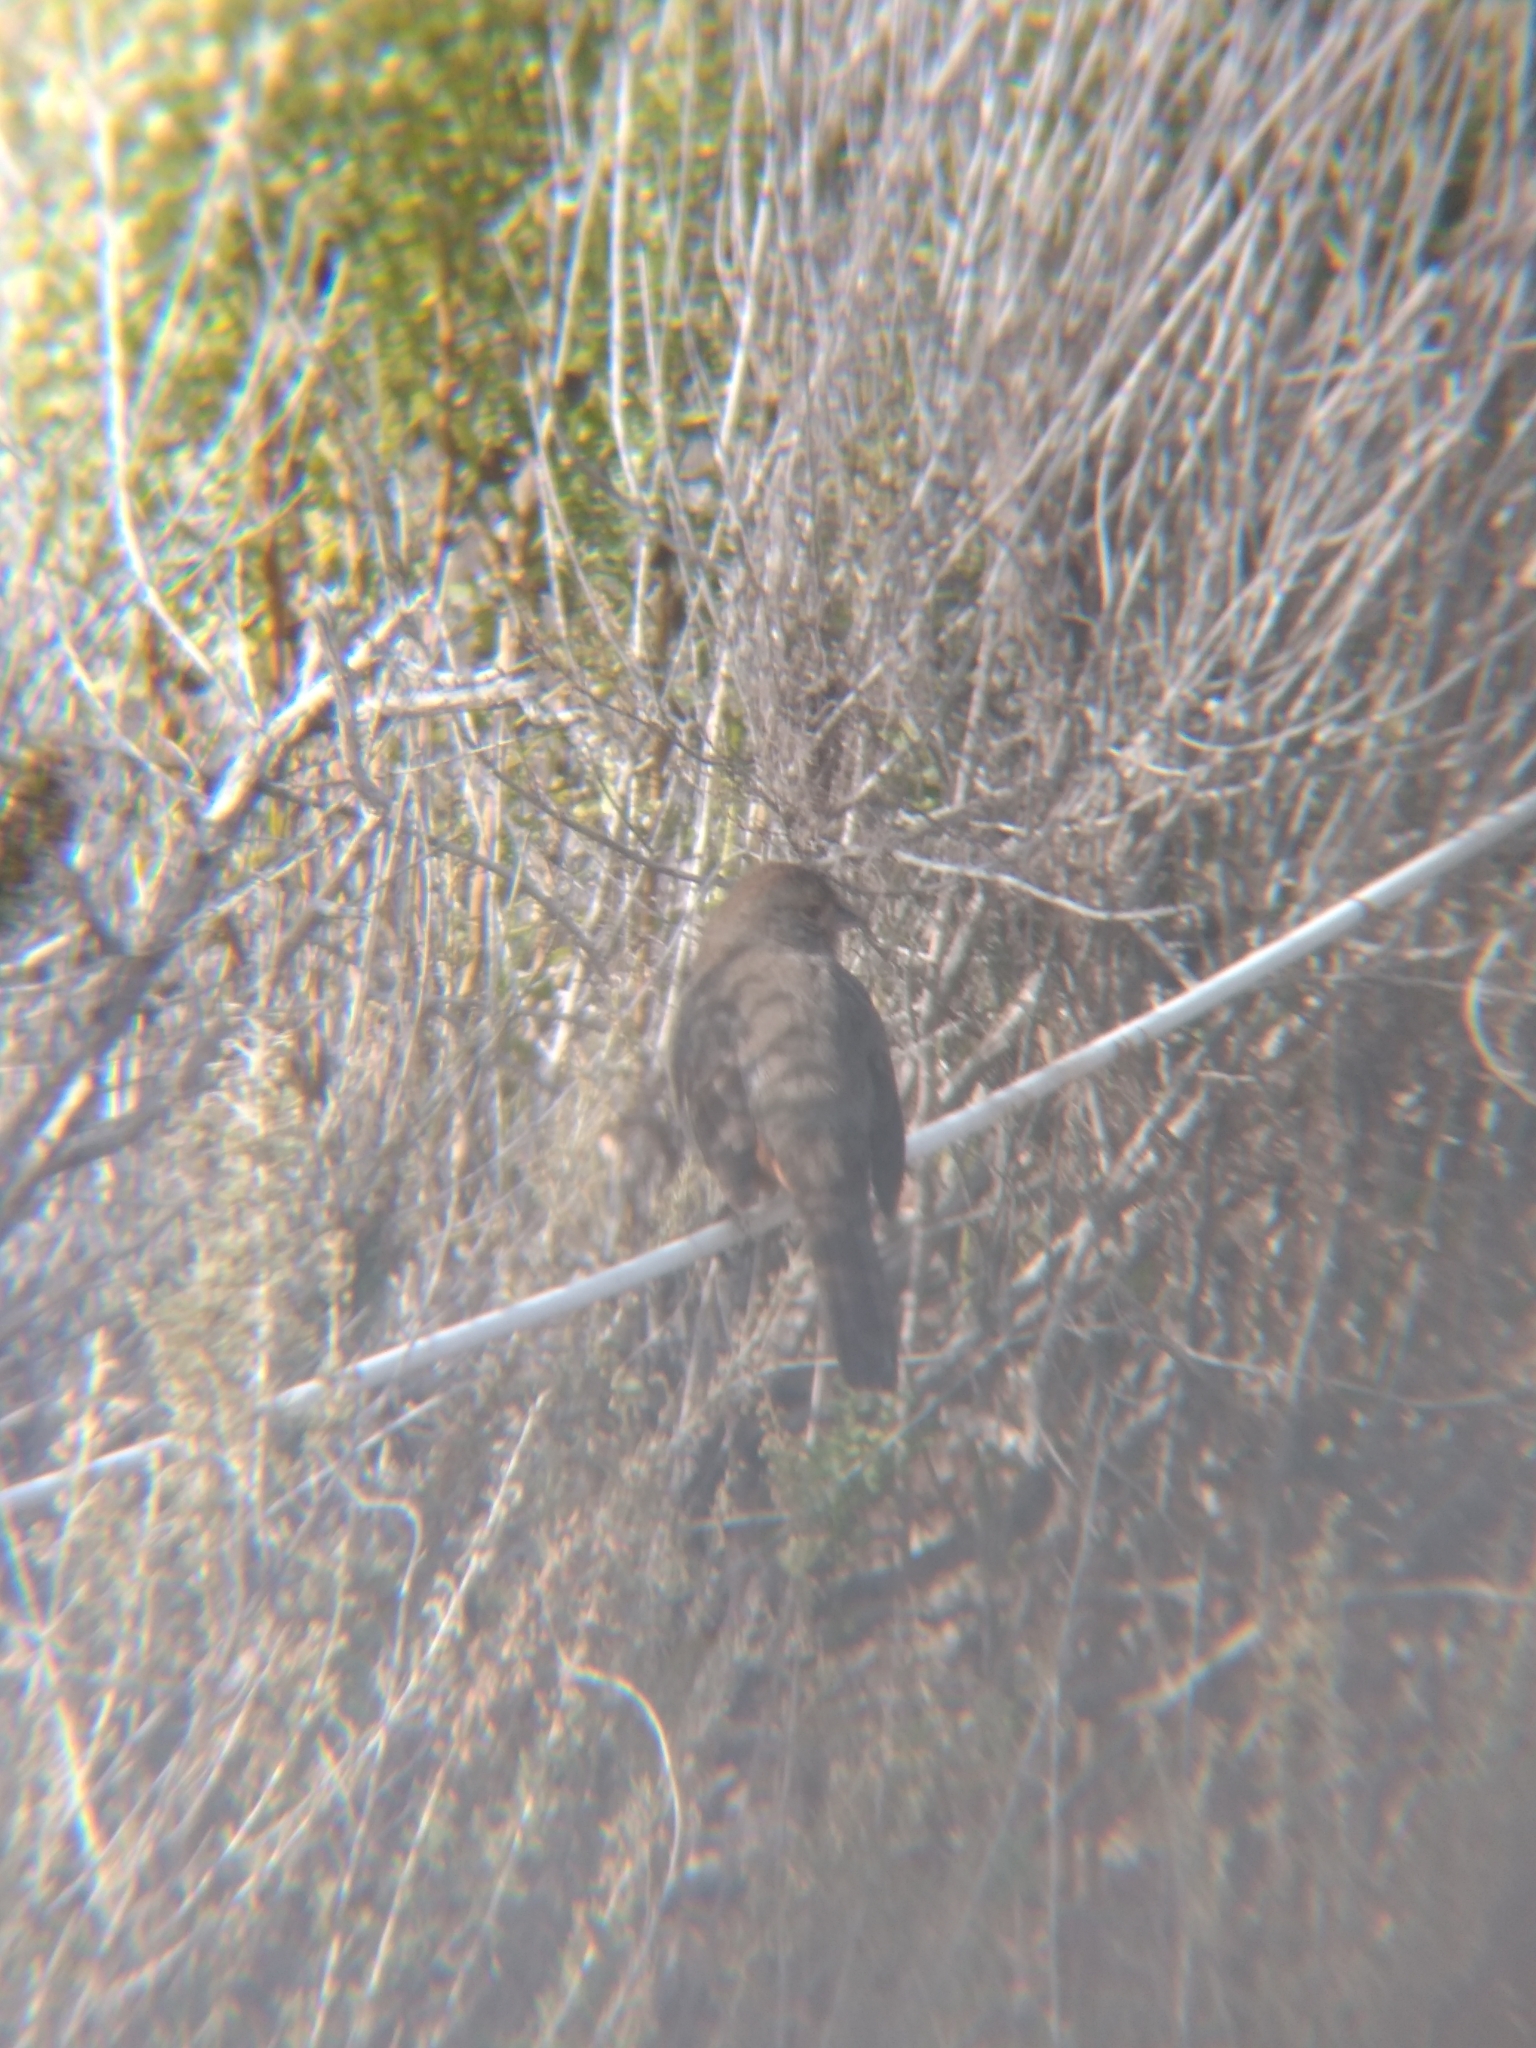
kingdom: Animalia
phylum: Chordata
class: Aves
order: Passeriformes
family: Passerellidae
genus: Melozone
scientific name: Melozone crissalis
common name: California towhee
